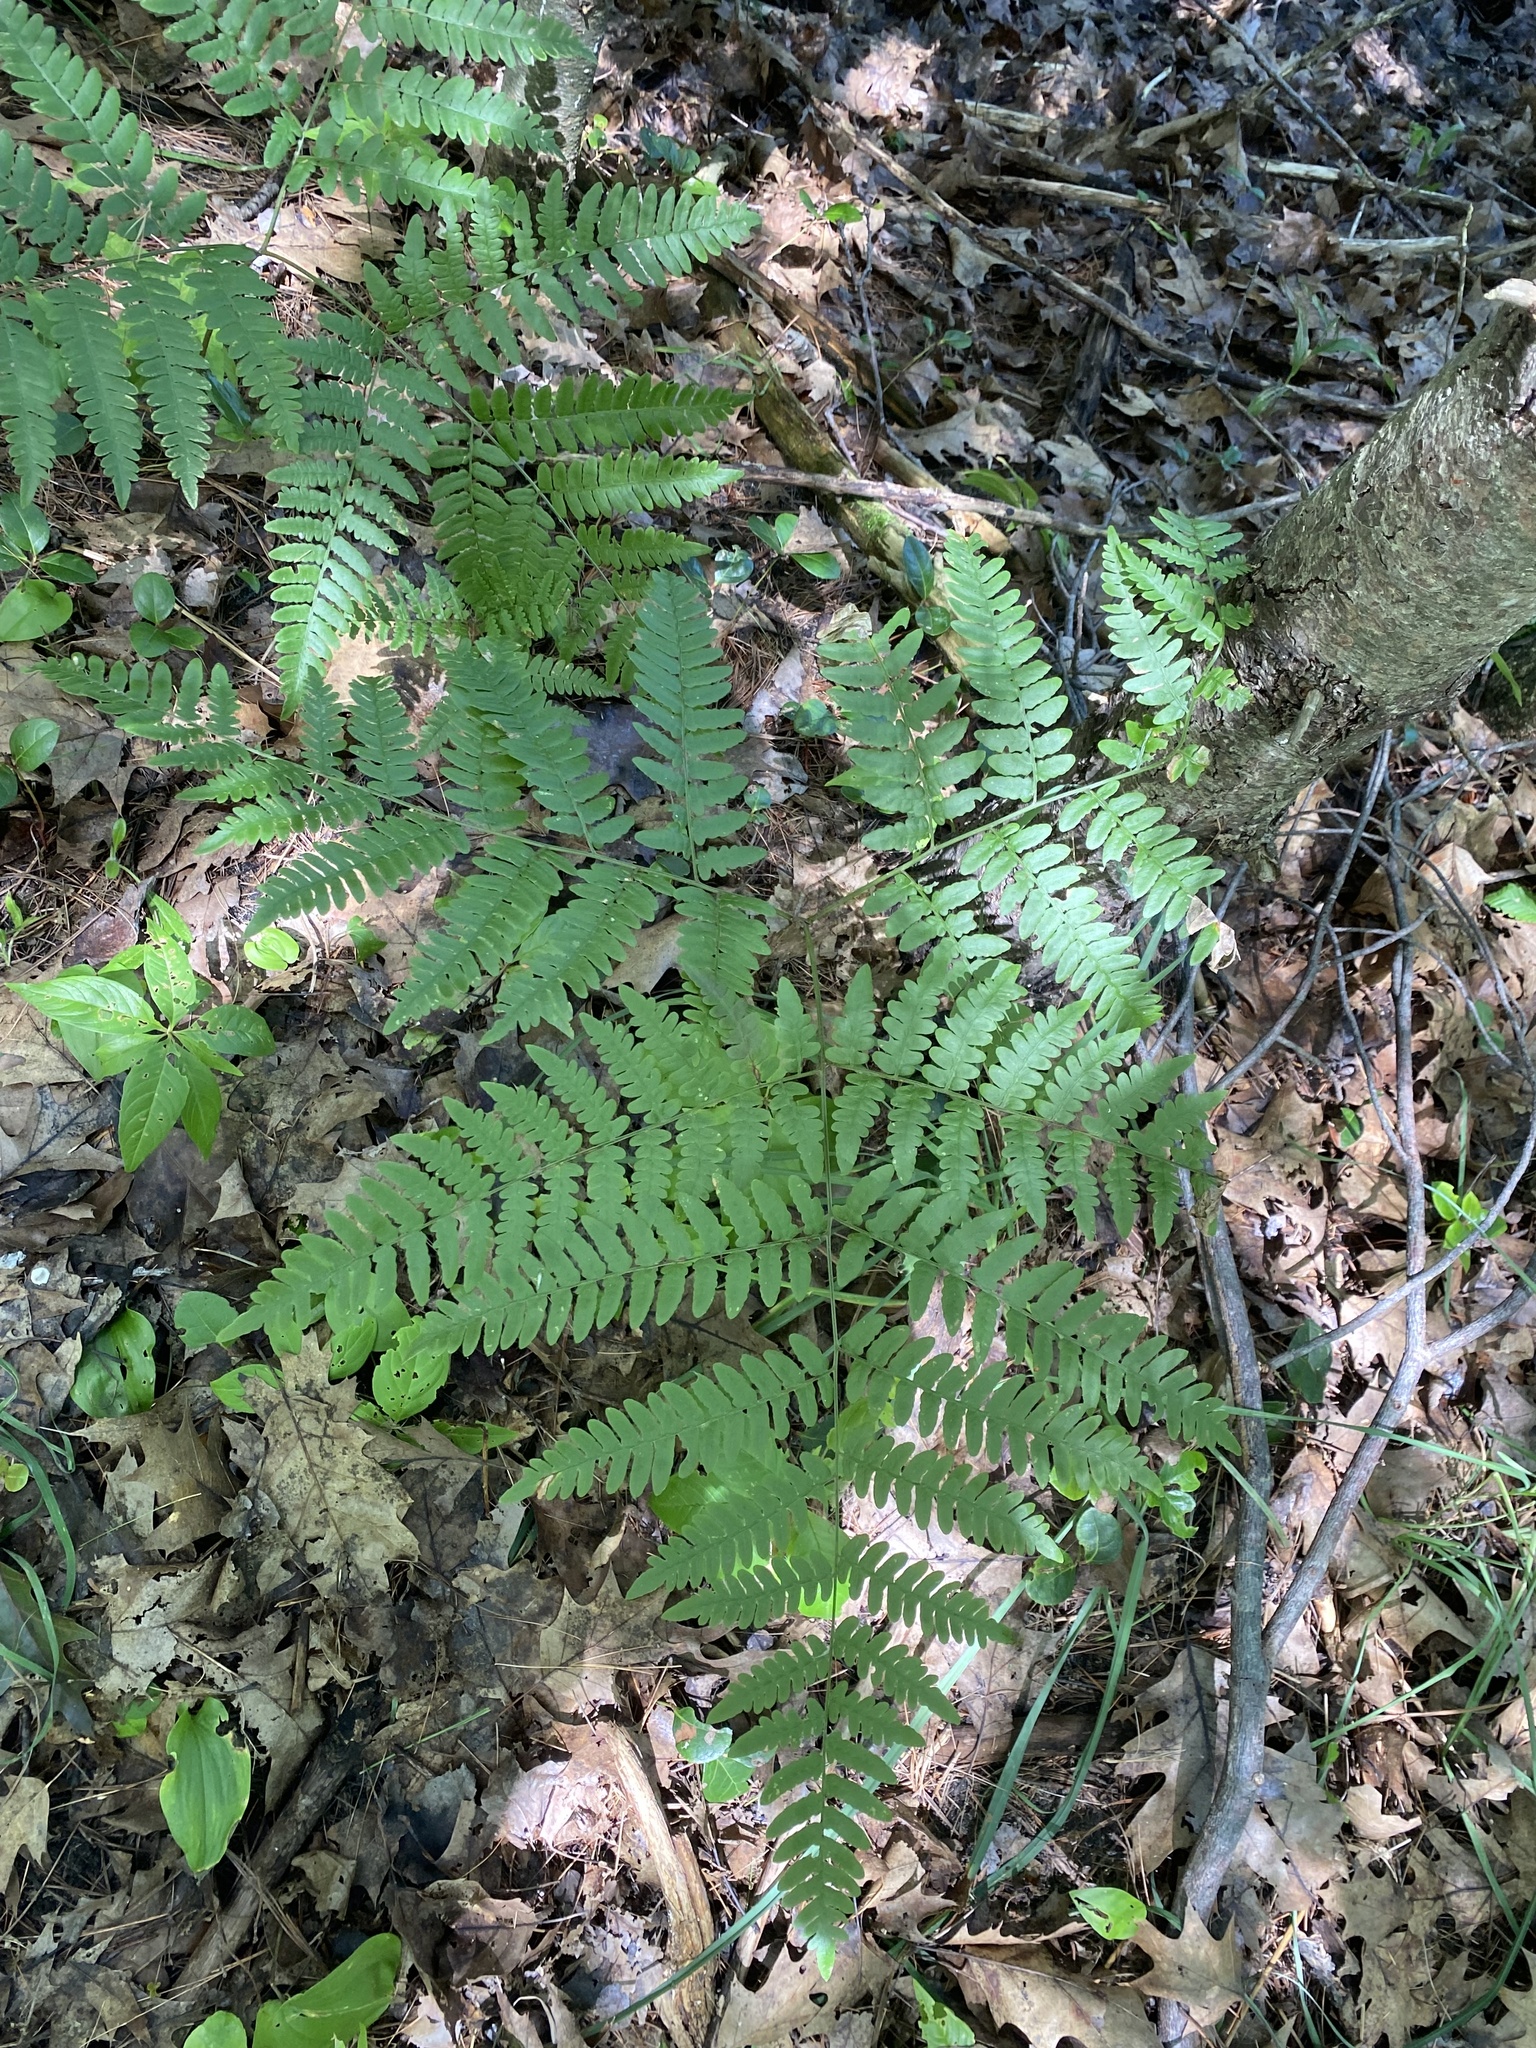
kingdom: Plantae
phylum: Tracheophyta
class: Polypodiopsida
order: Polypodiales
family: Dennstaedtiaceae
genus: Pteridium
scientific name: Pteridium aquilinum
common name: Bracken
